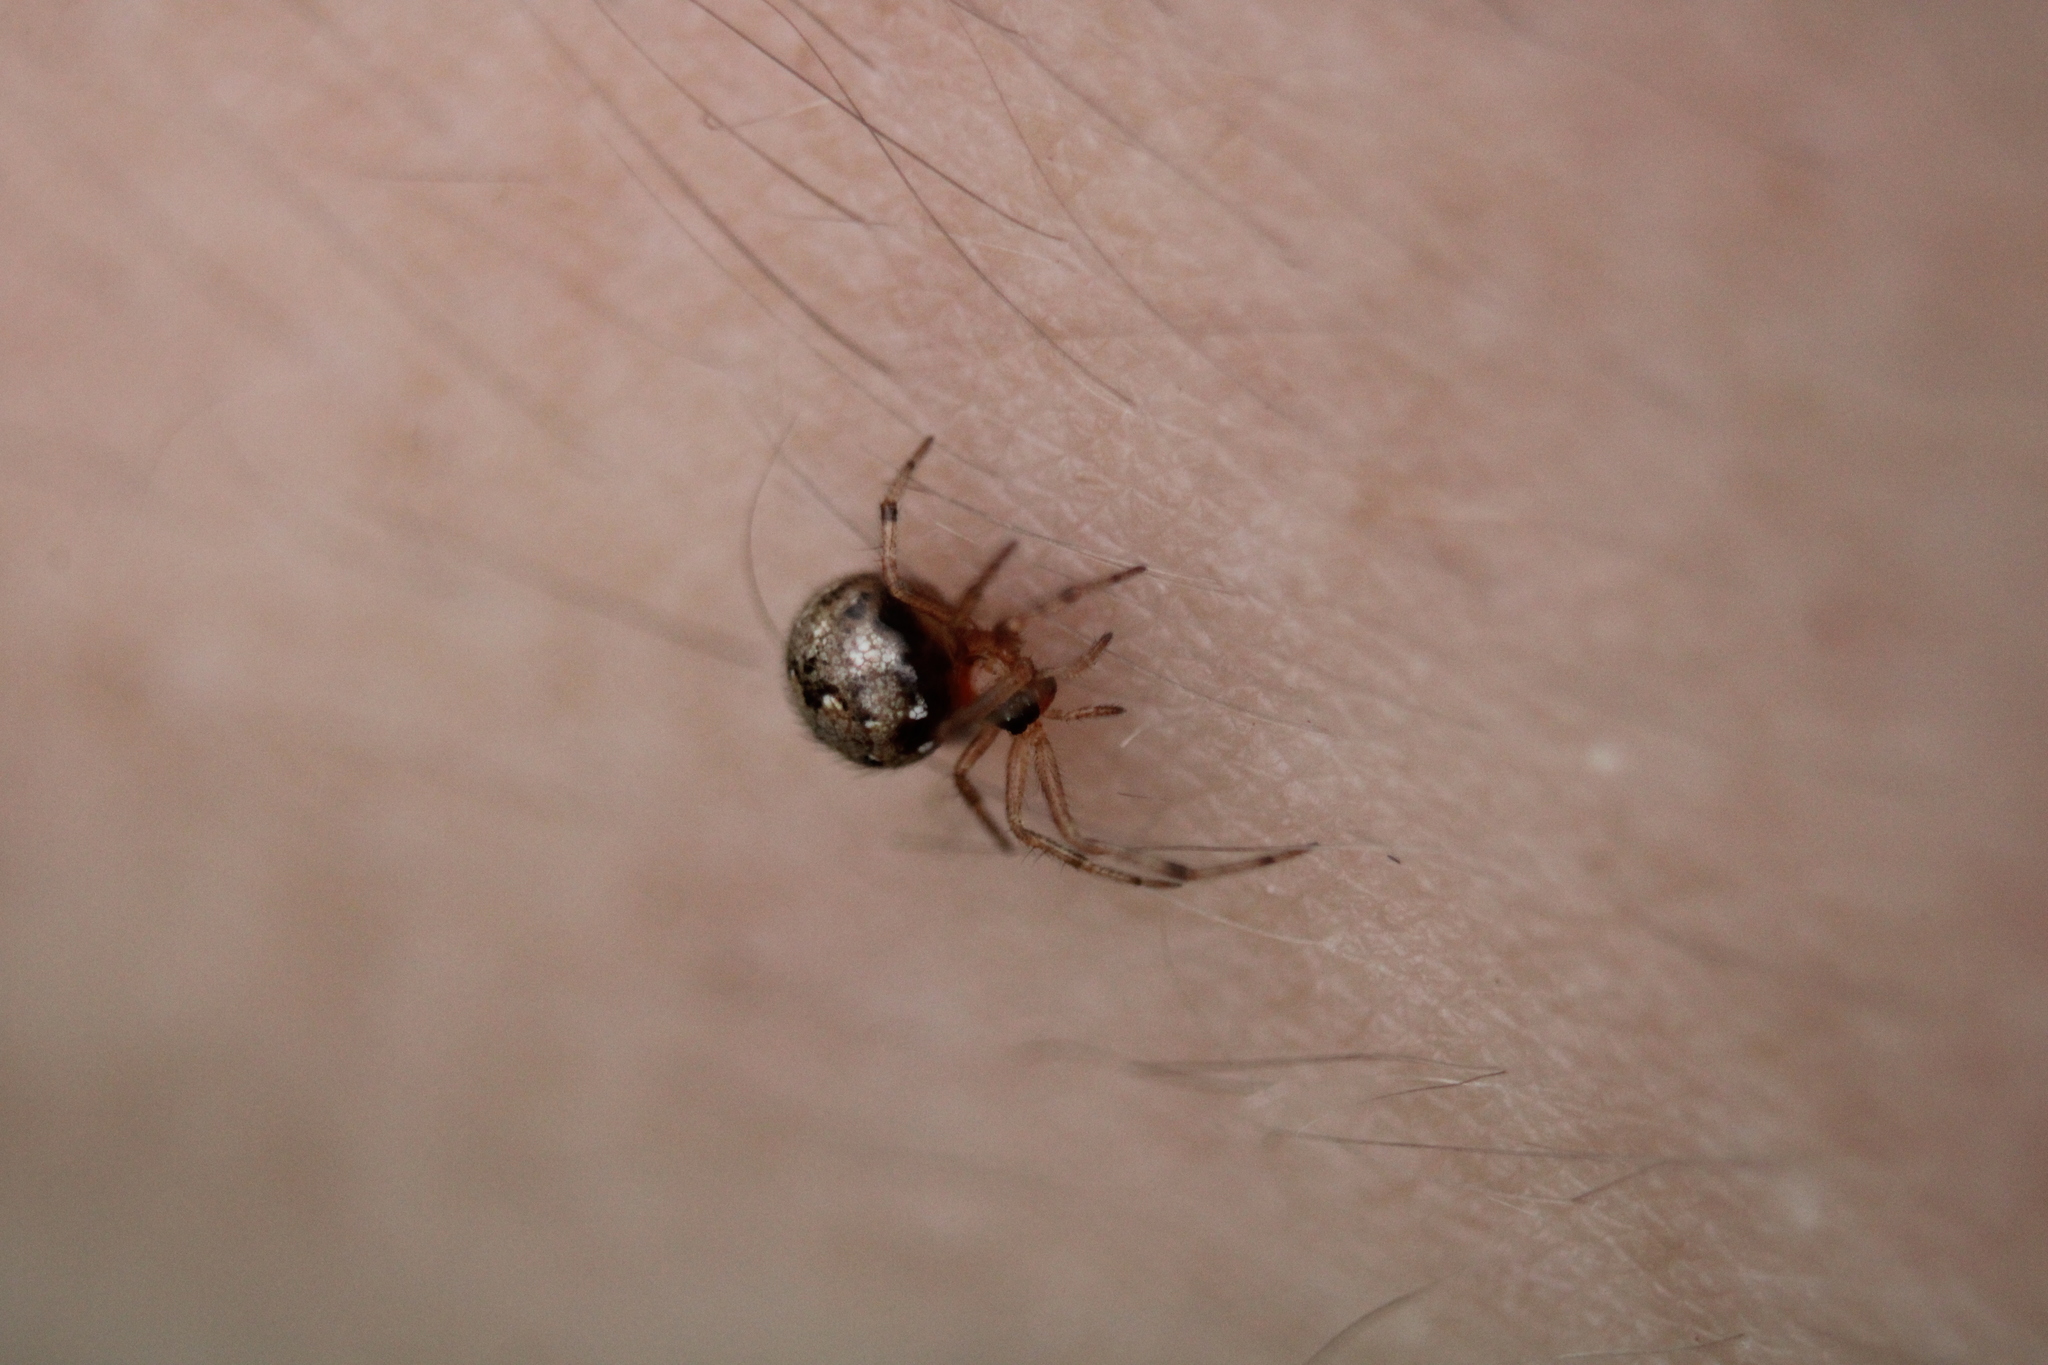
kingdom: Animalia
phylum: Arthropoda
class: Arachnida
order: Araneae
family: Theridiidae
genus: Theridion
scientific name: Theridion australe
